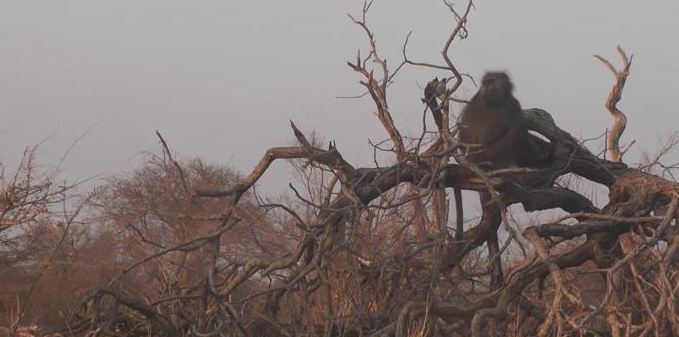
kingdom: Animalia
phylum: Chordata
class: Mammalia
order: Primates
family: Cercopithecidae
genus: Papio
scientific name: Papio ursinus
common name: Chacma baboon
